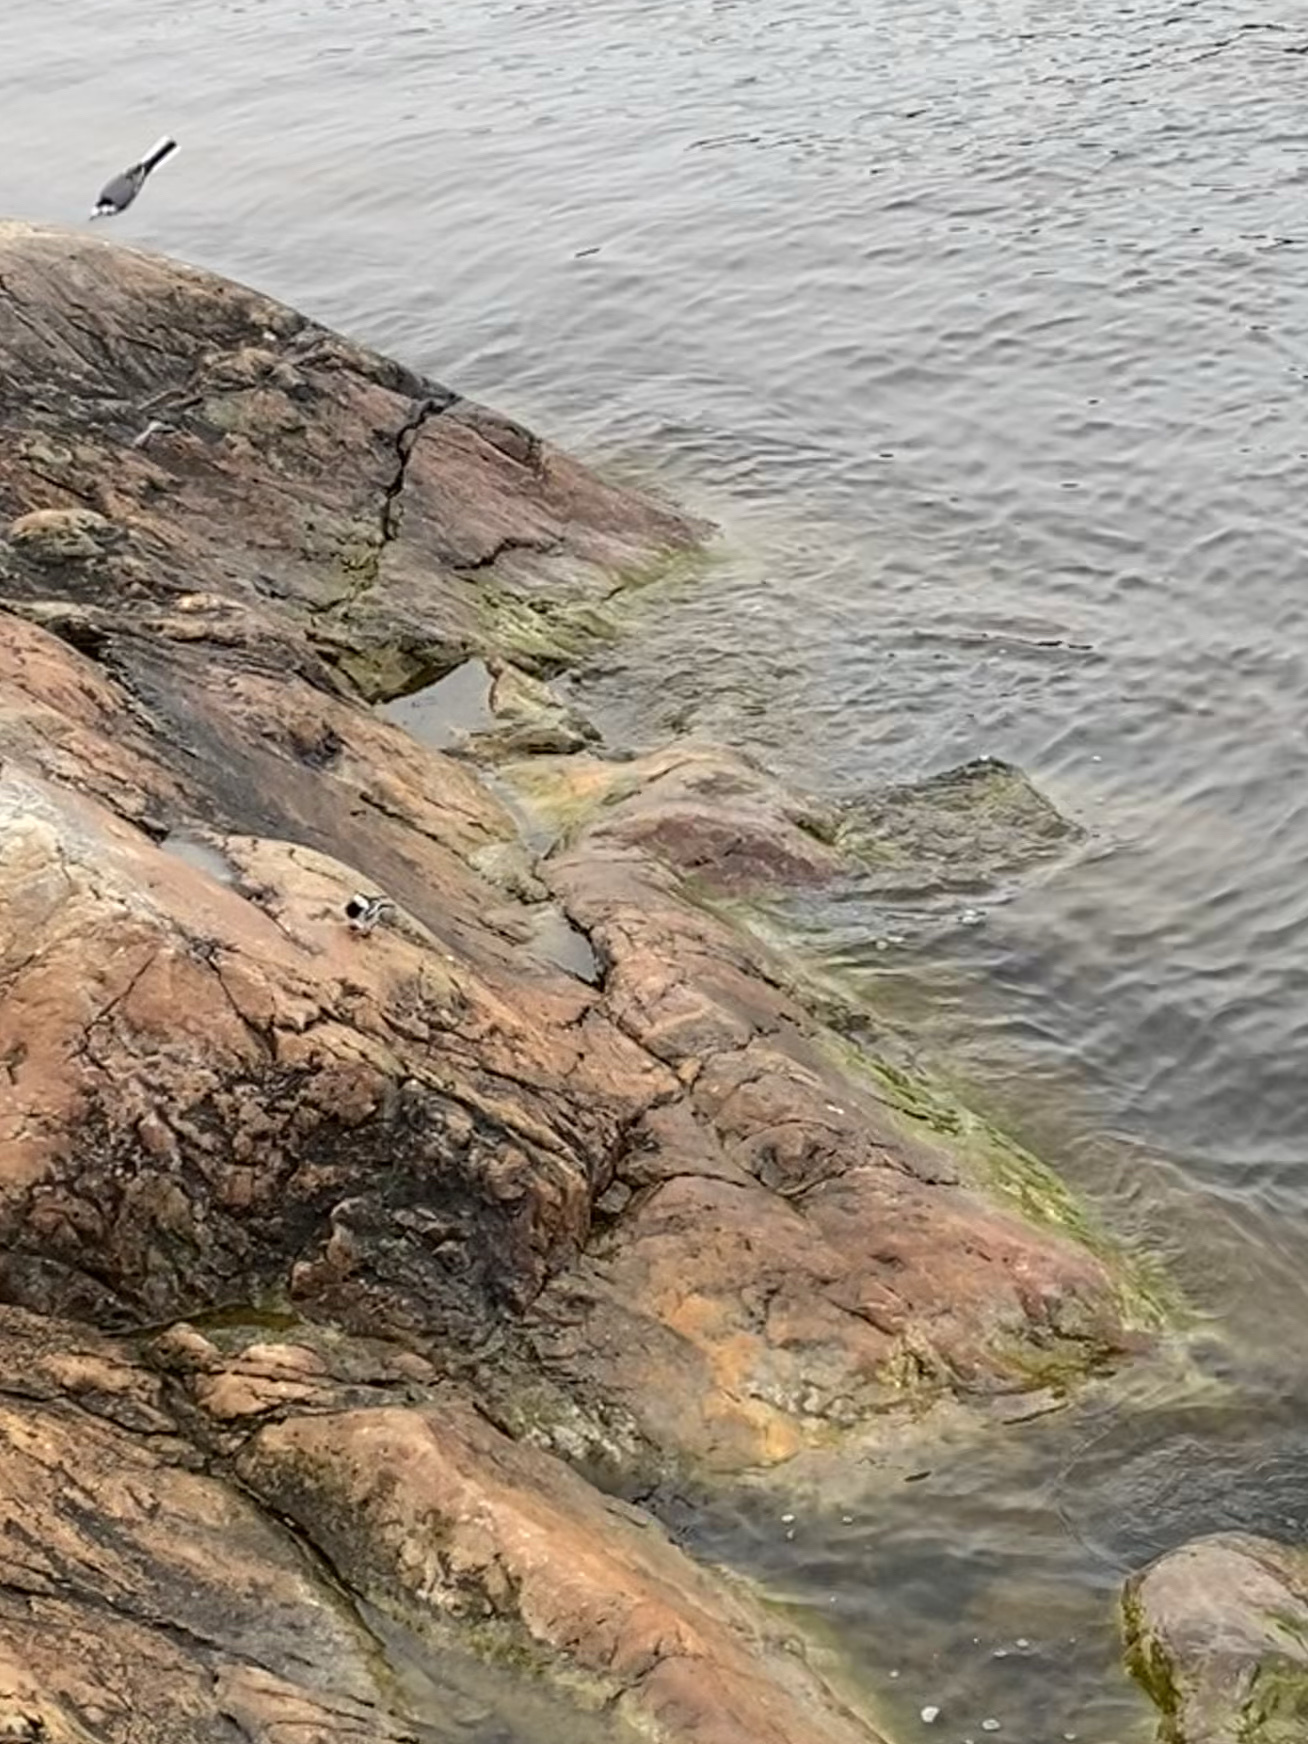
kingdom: Animalia
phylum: Chordata
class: Aves
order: Passeriformes
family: Motacillidae
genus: Motacilla
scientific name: Motacilla alba
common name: White wagtail
